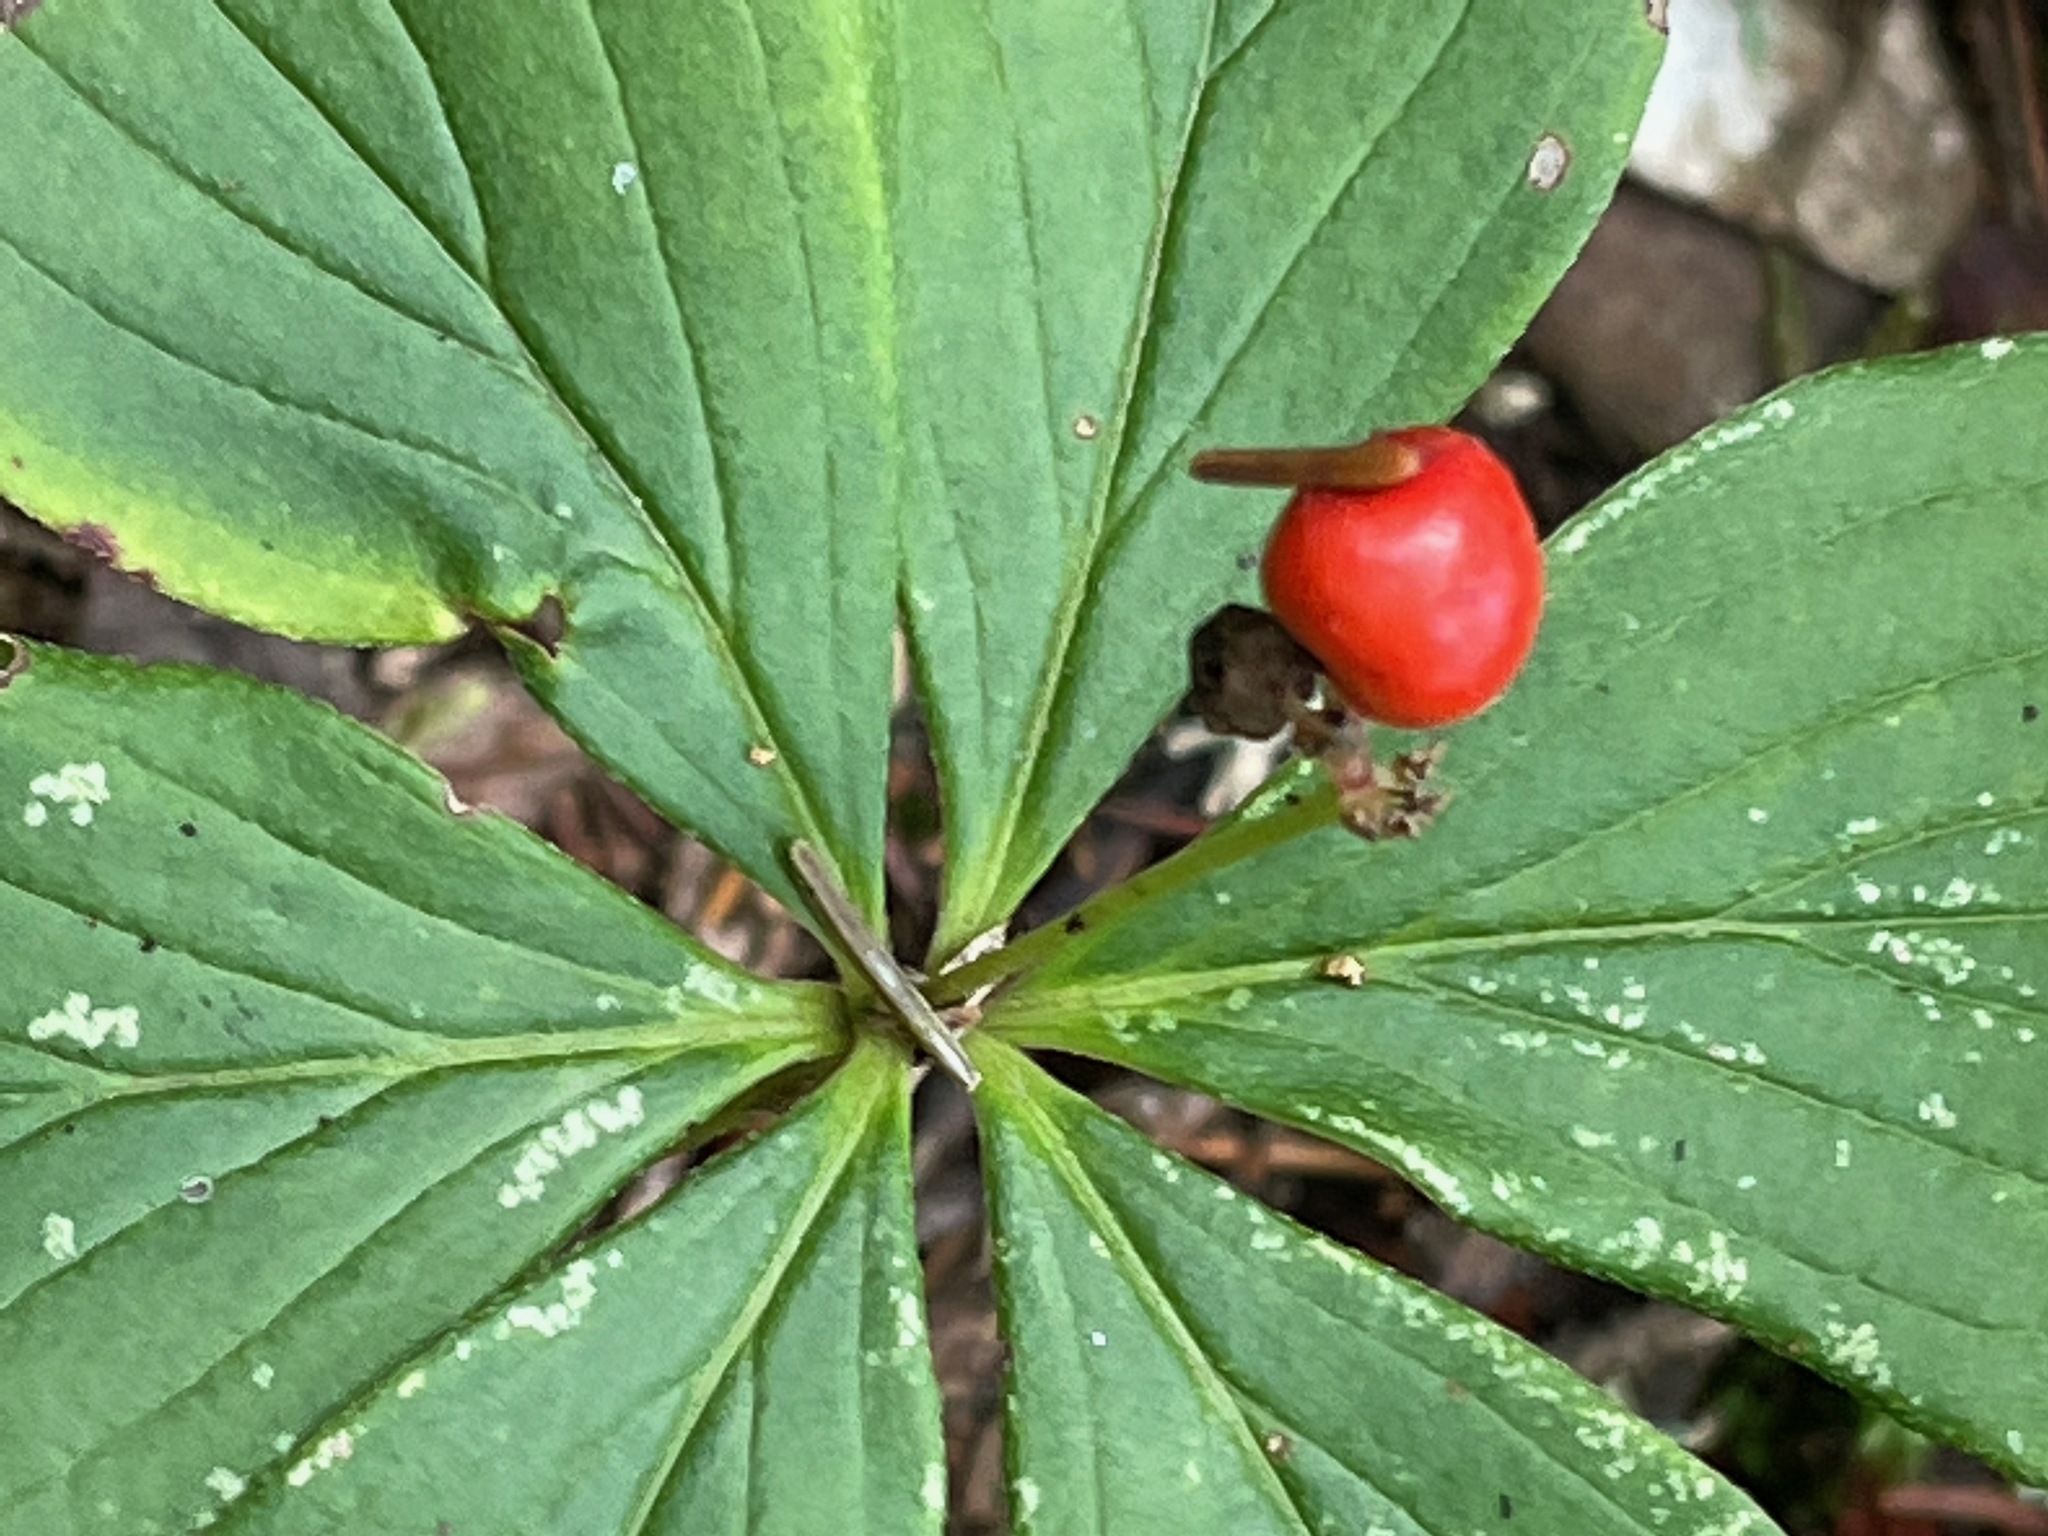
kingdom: Plantae
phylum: Tracheophyta
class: Magnoliopsida
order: Cornales
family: Cornaceae
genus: Cornus
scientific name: Cornus canadensis
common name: Creeping dogwood
